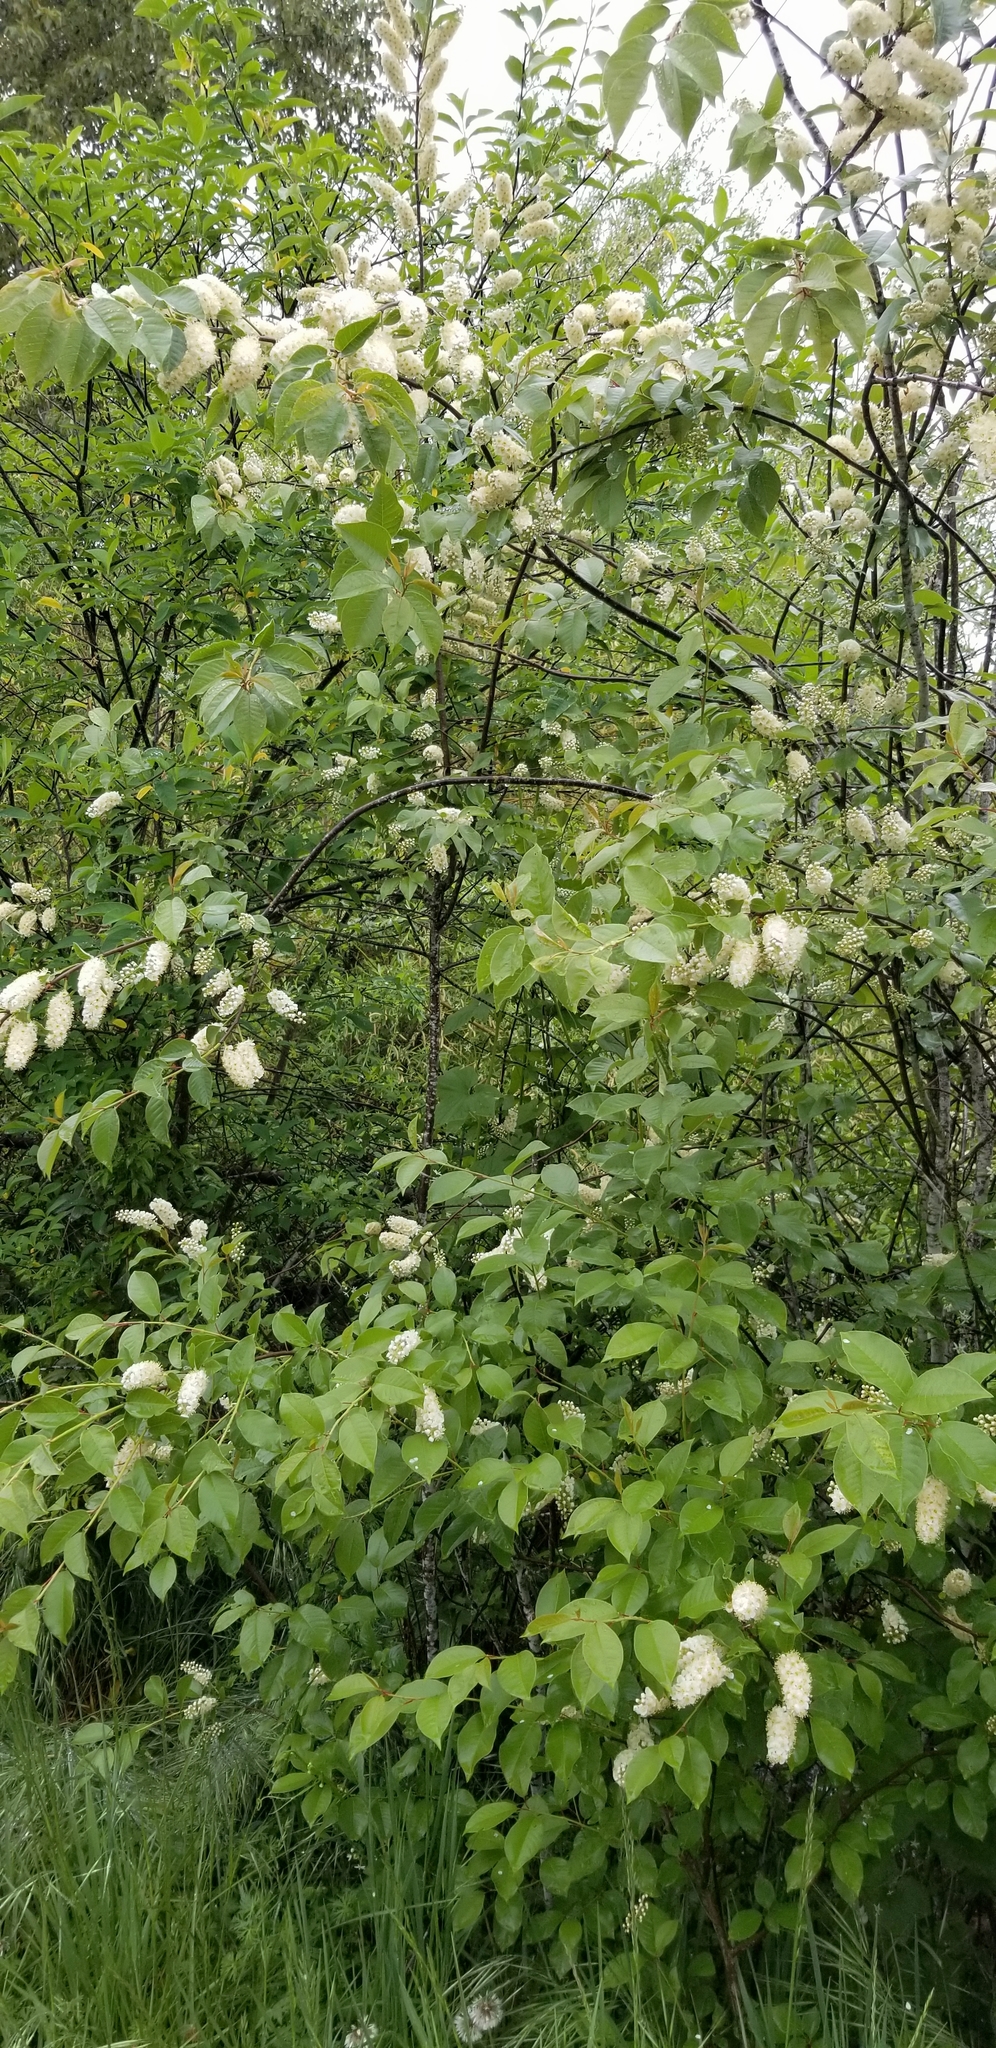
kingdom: Plantae
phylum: Tracheophyta
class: Magnoliopsida
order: Rosales
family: Rosaceae
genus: Prunus
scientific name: Prunus virginiana
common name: Chokecherry
